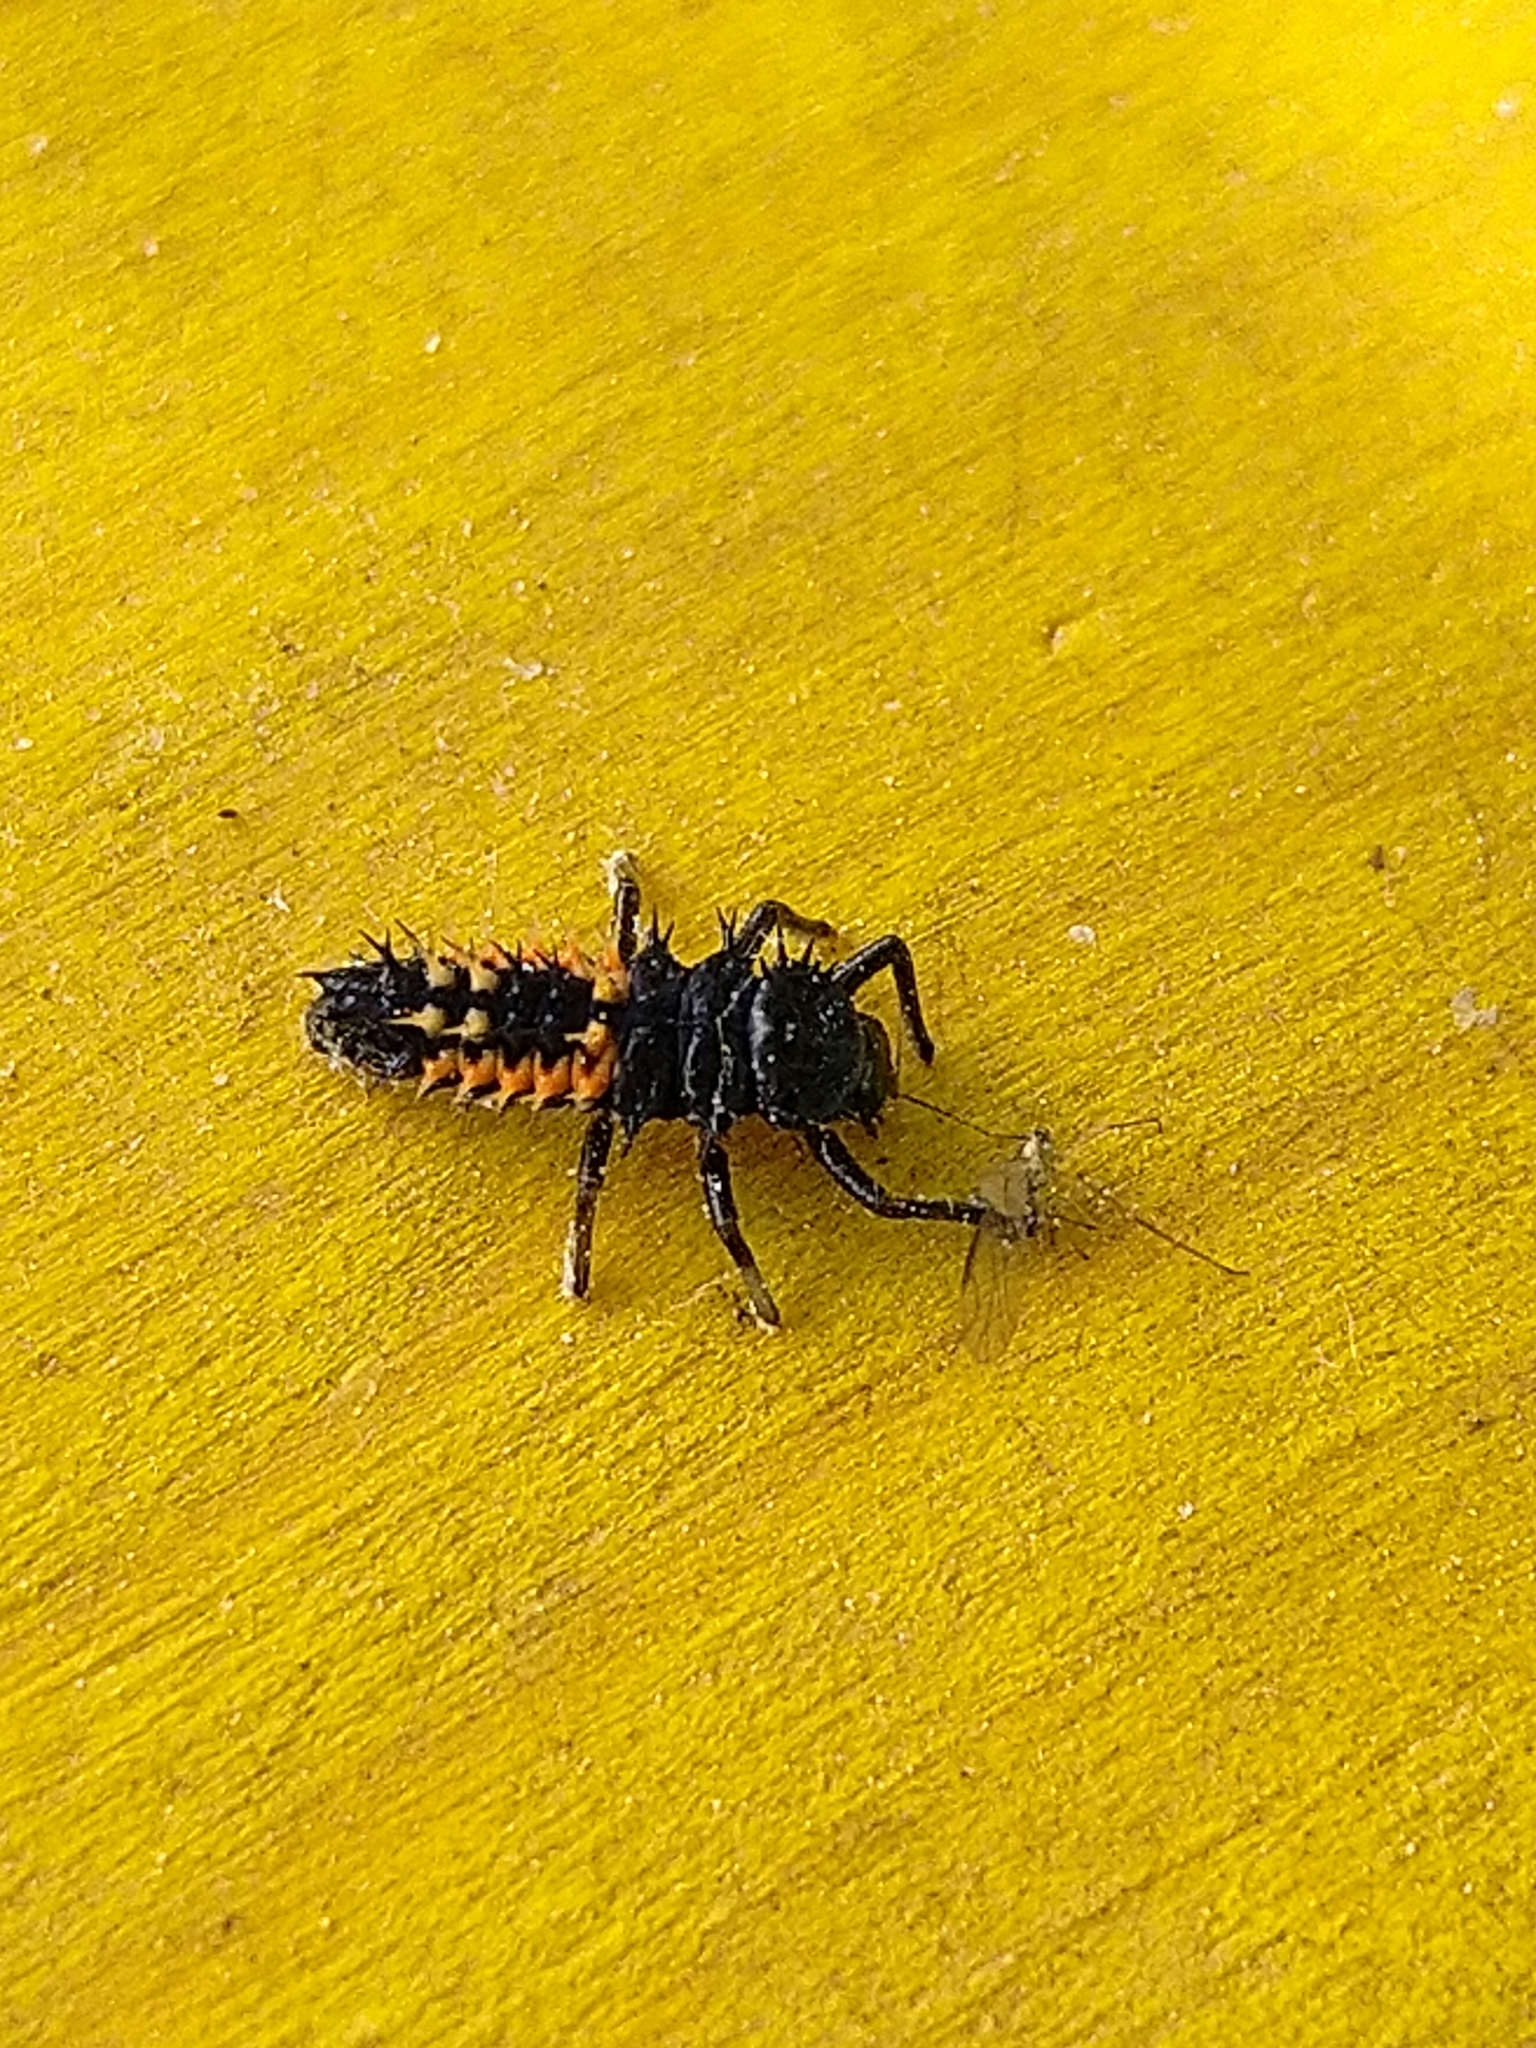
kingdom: Animalia
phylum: Arthropoda
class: Insecta
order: Coleoptera
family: Coccinellidae
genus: Harmonia
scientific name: Harmonia axyridis
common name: Harlequin ladybird
